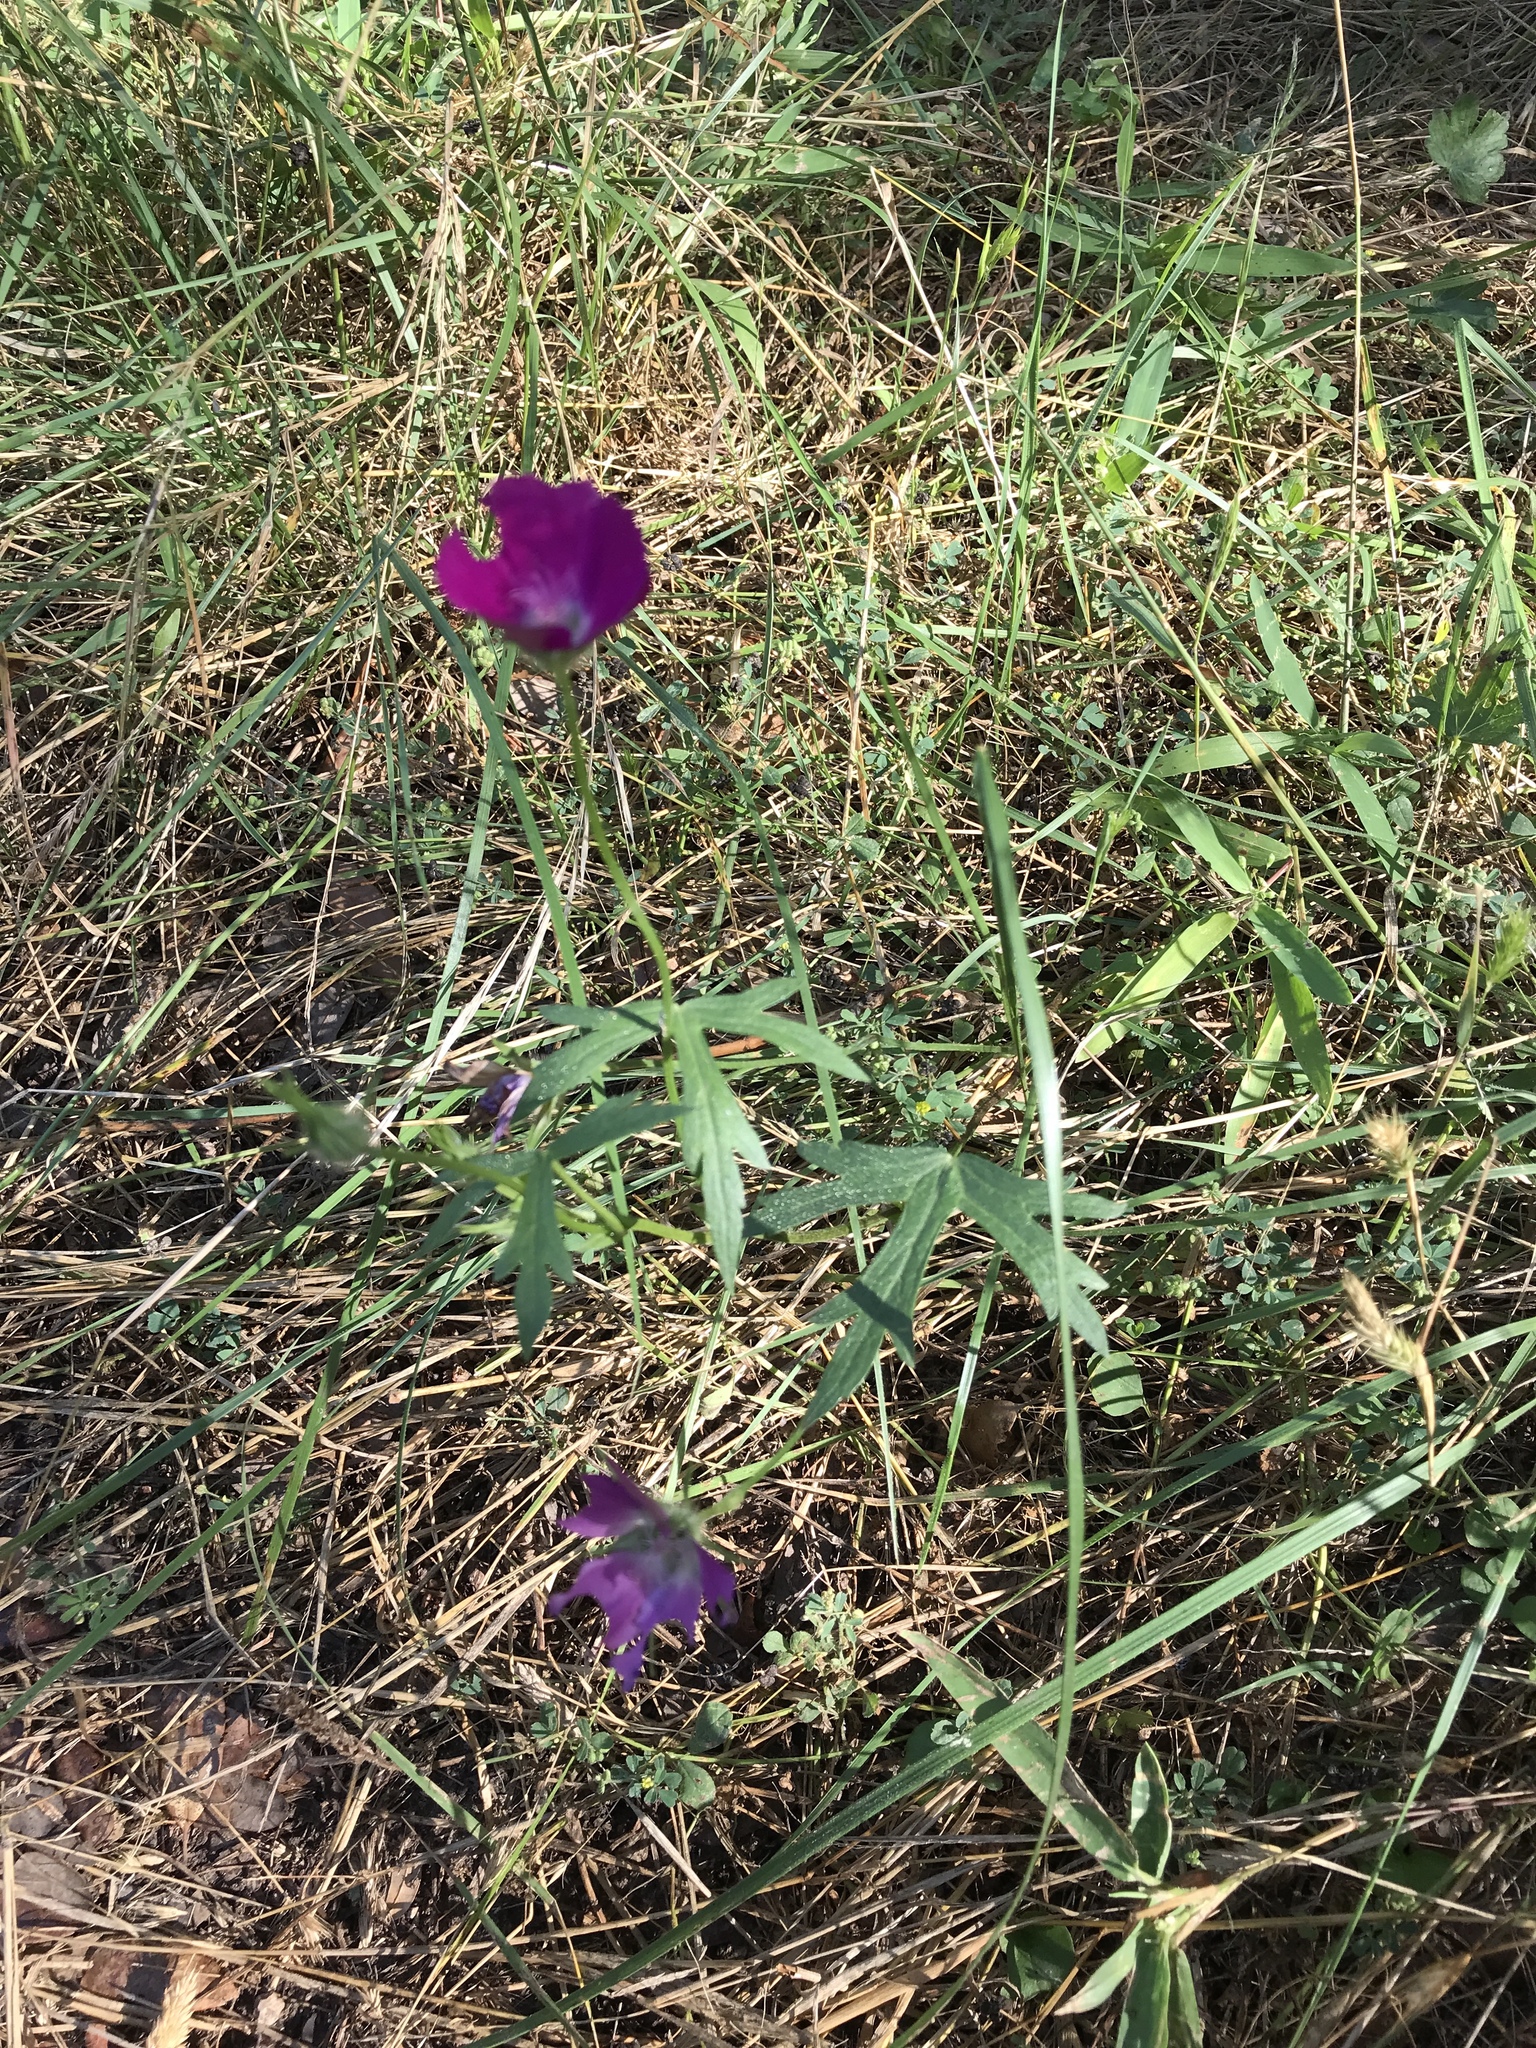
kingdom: Plantae
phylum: Tracheophyta
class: Magnoliopsida
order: Malvales
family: Malvaceae
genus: Callirhoe
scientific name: Callirhoe involucrata
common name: Purple poppy-mallow
